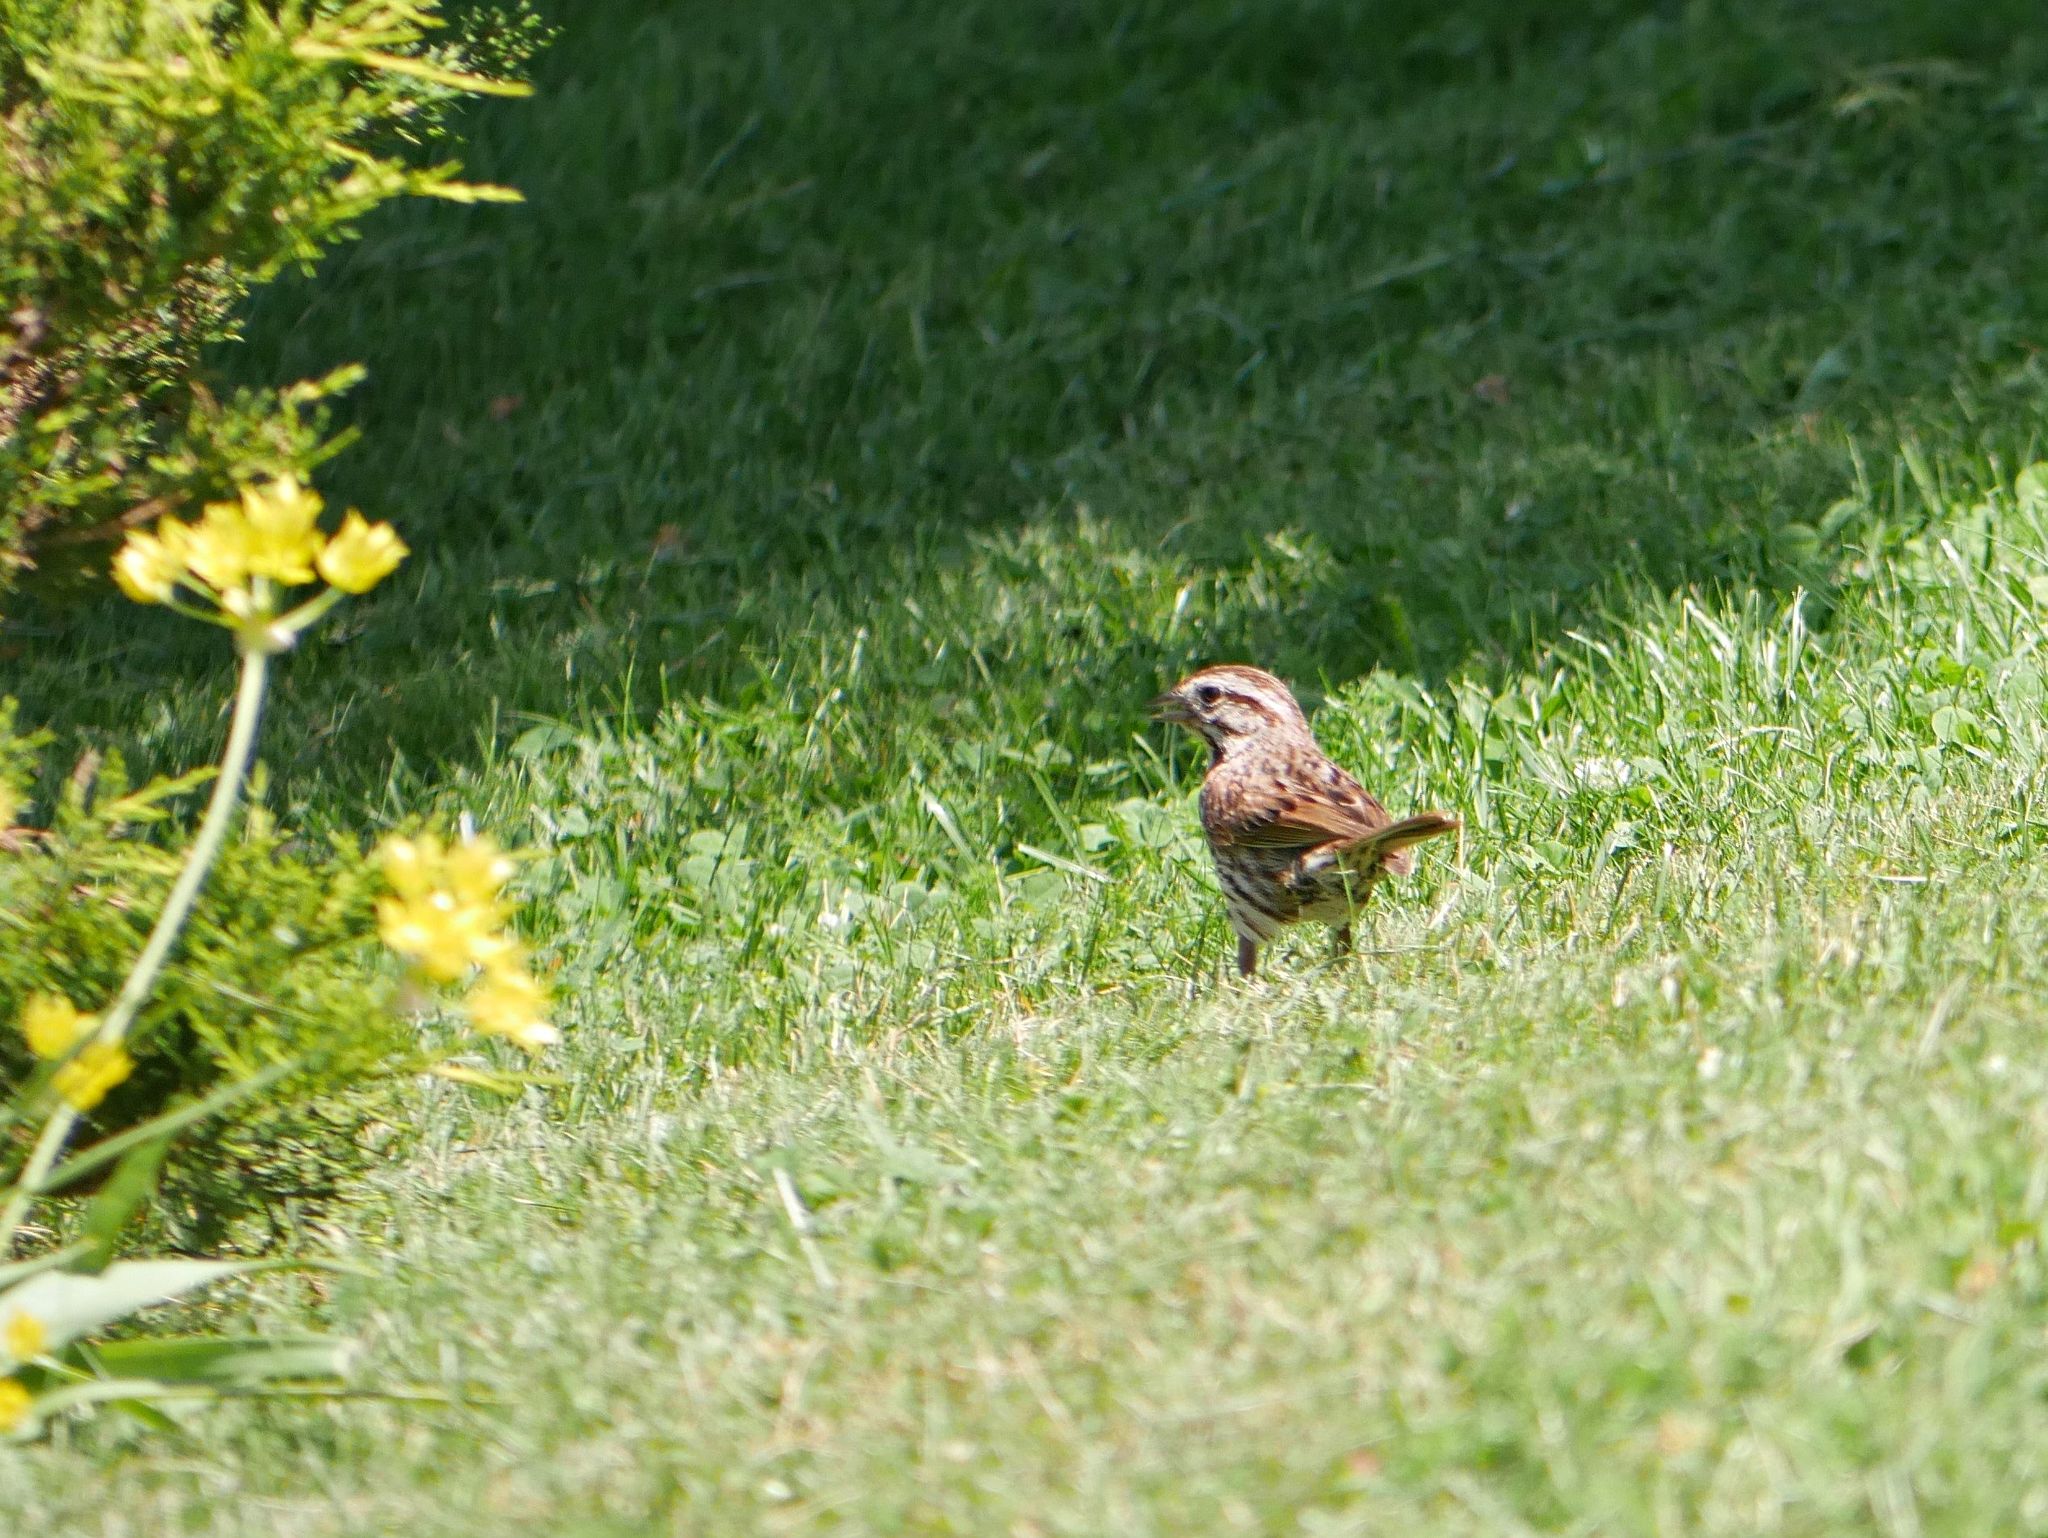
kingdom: Animalia
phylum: Chordata
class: Aves
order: Passeriformes
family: Passerellidae
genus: Melospiza
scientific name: Melospiza melodia
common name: Song sparrow
